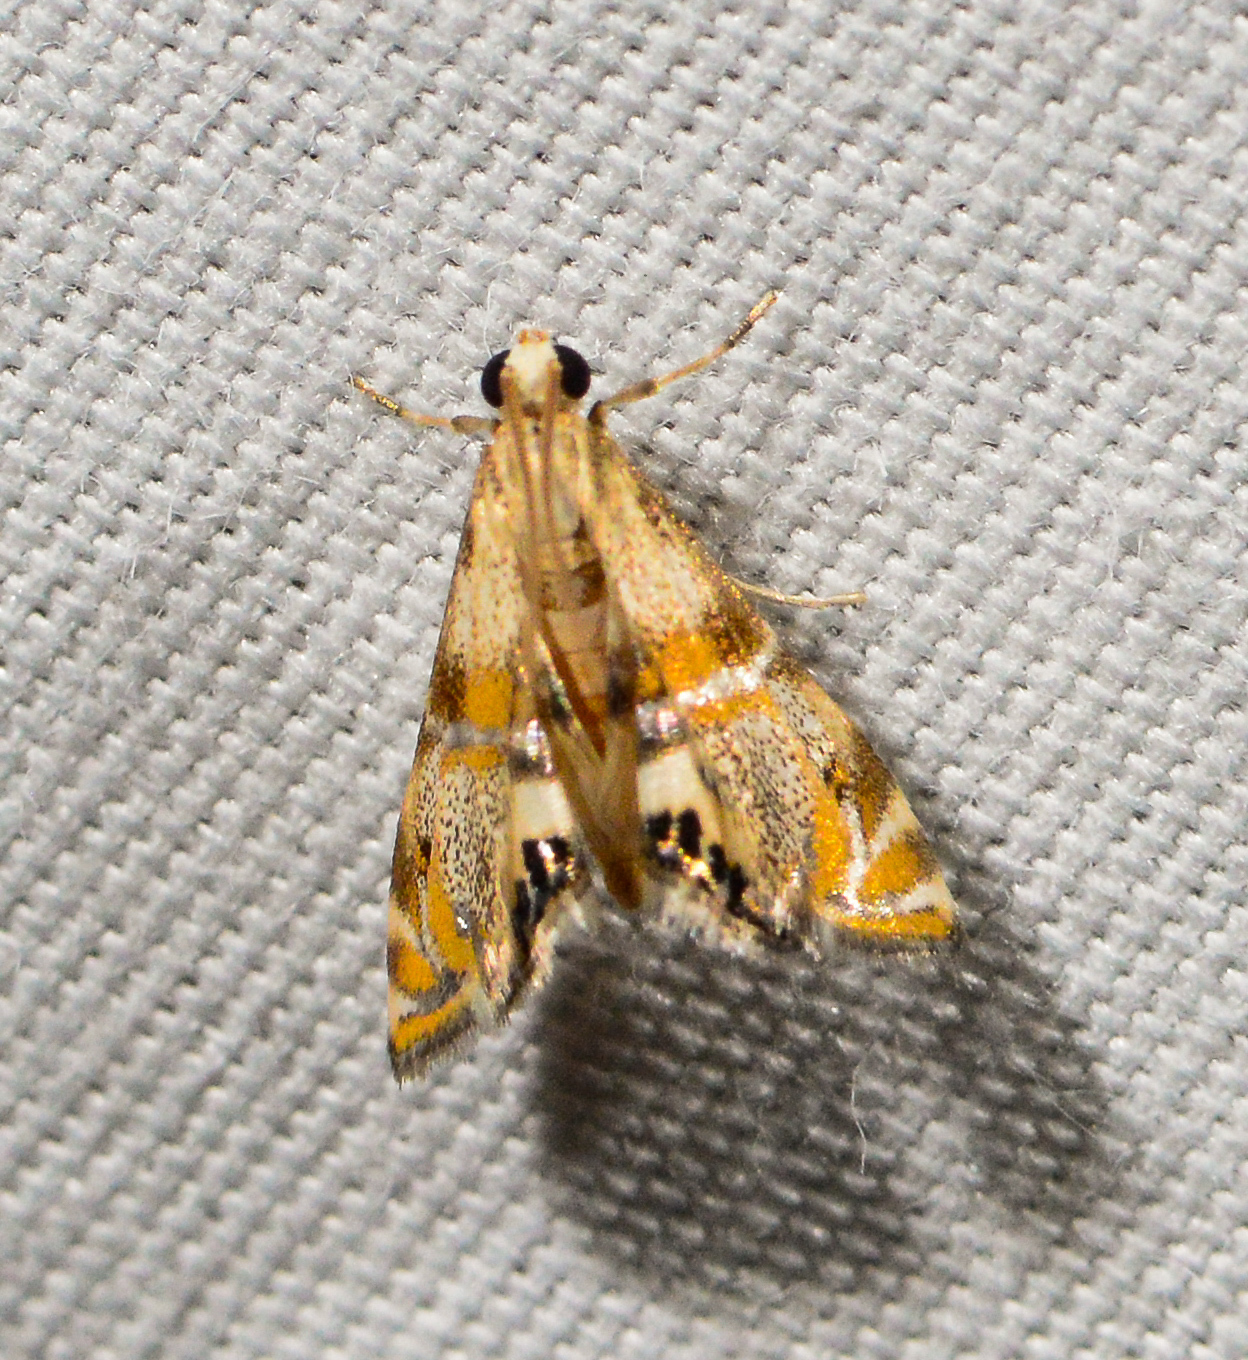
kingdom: Animalia
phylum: Arthropoda
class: Insecta
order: Lepidoptera
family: Crambidae
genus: Petrophila
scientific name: Petrophila bifascialis
